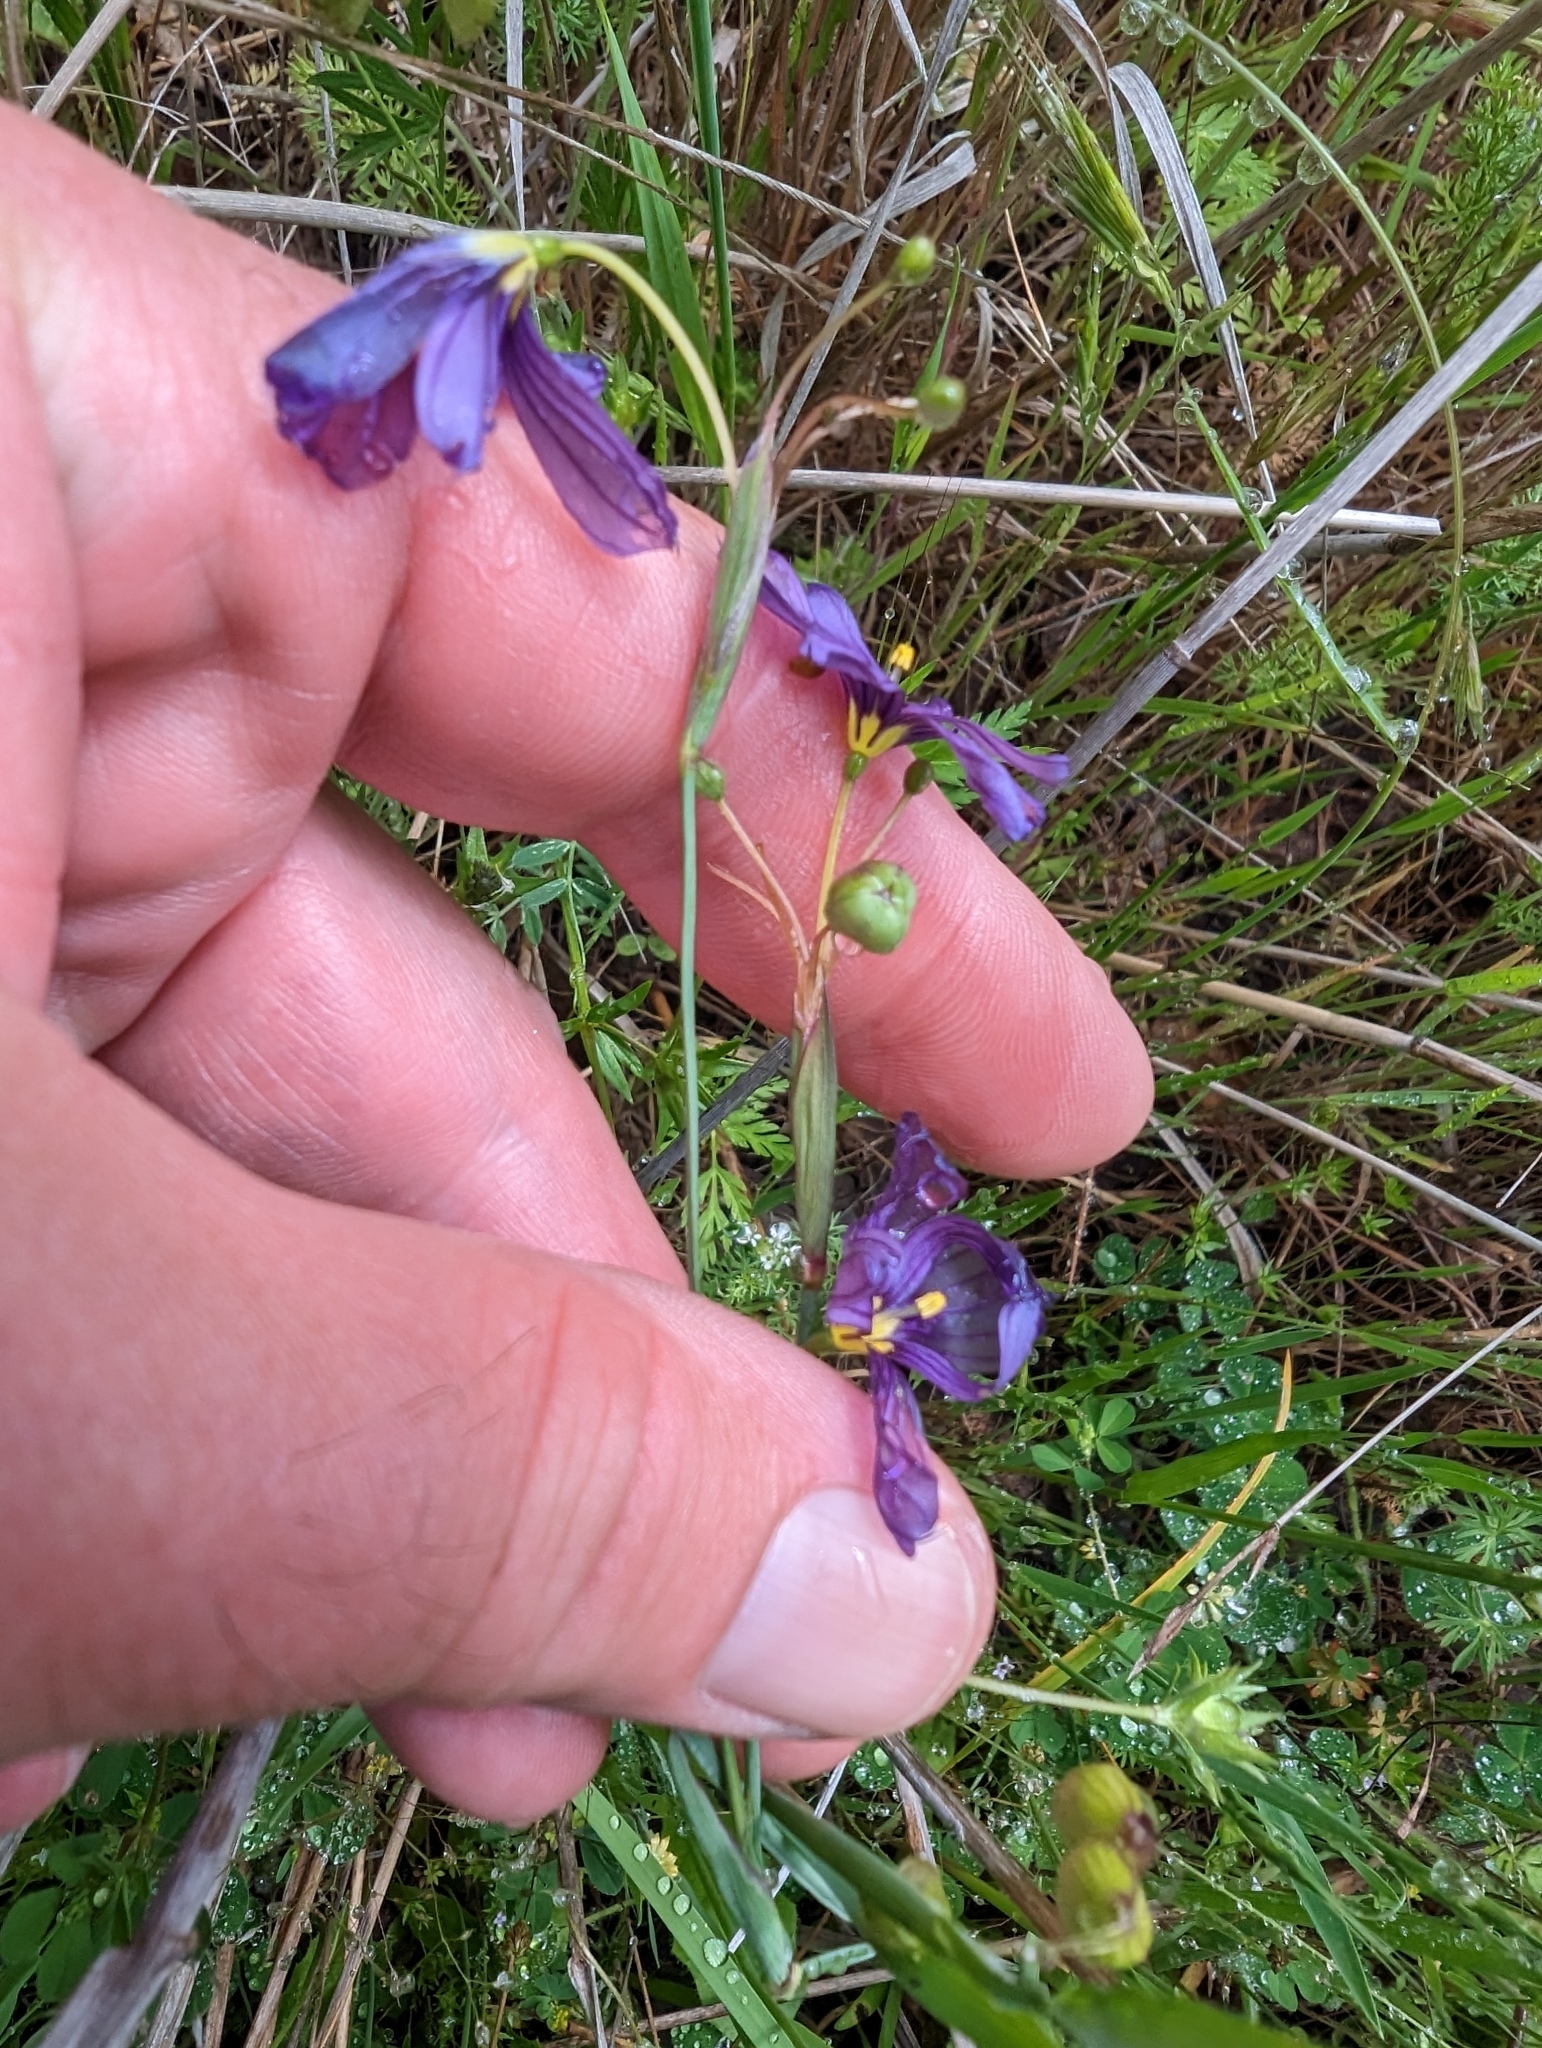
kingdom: Plantae
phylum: Tracheophyta
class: Liliopsida
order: Asparagales
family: Iridaceae
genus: Sisyrinchium
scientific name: Sisyrinchium bellum
